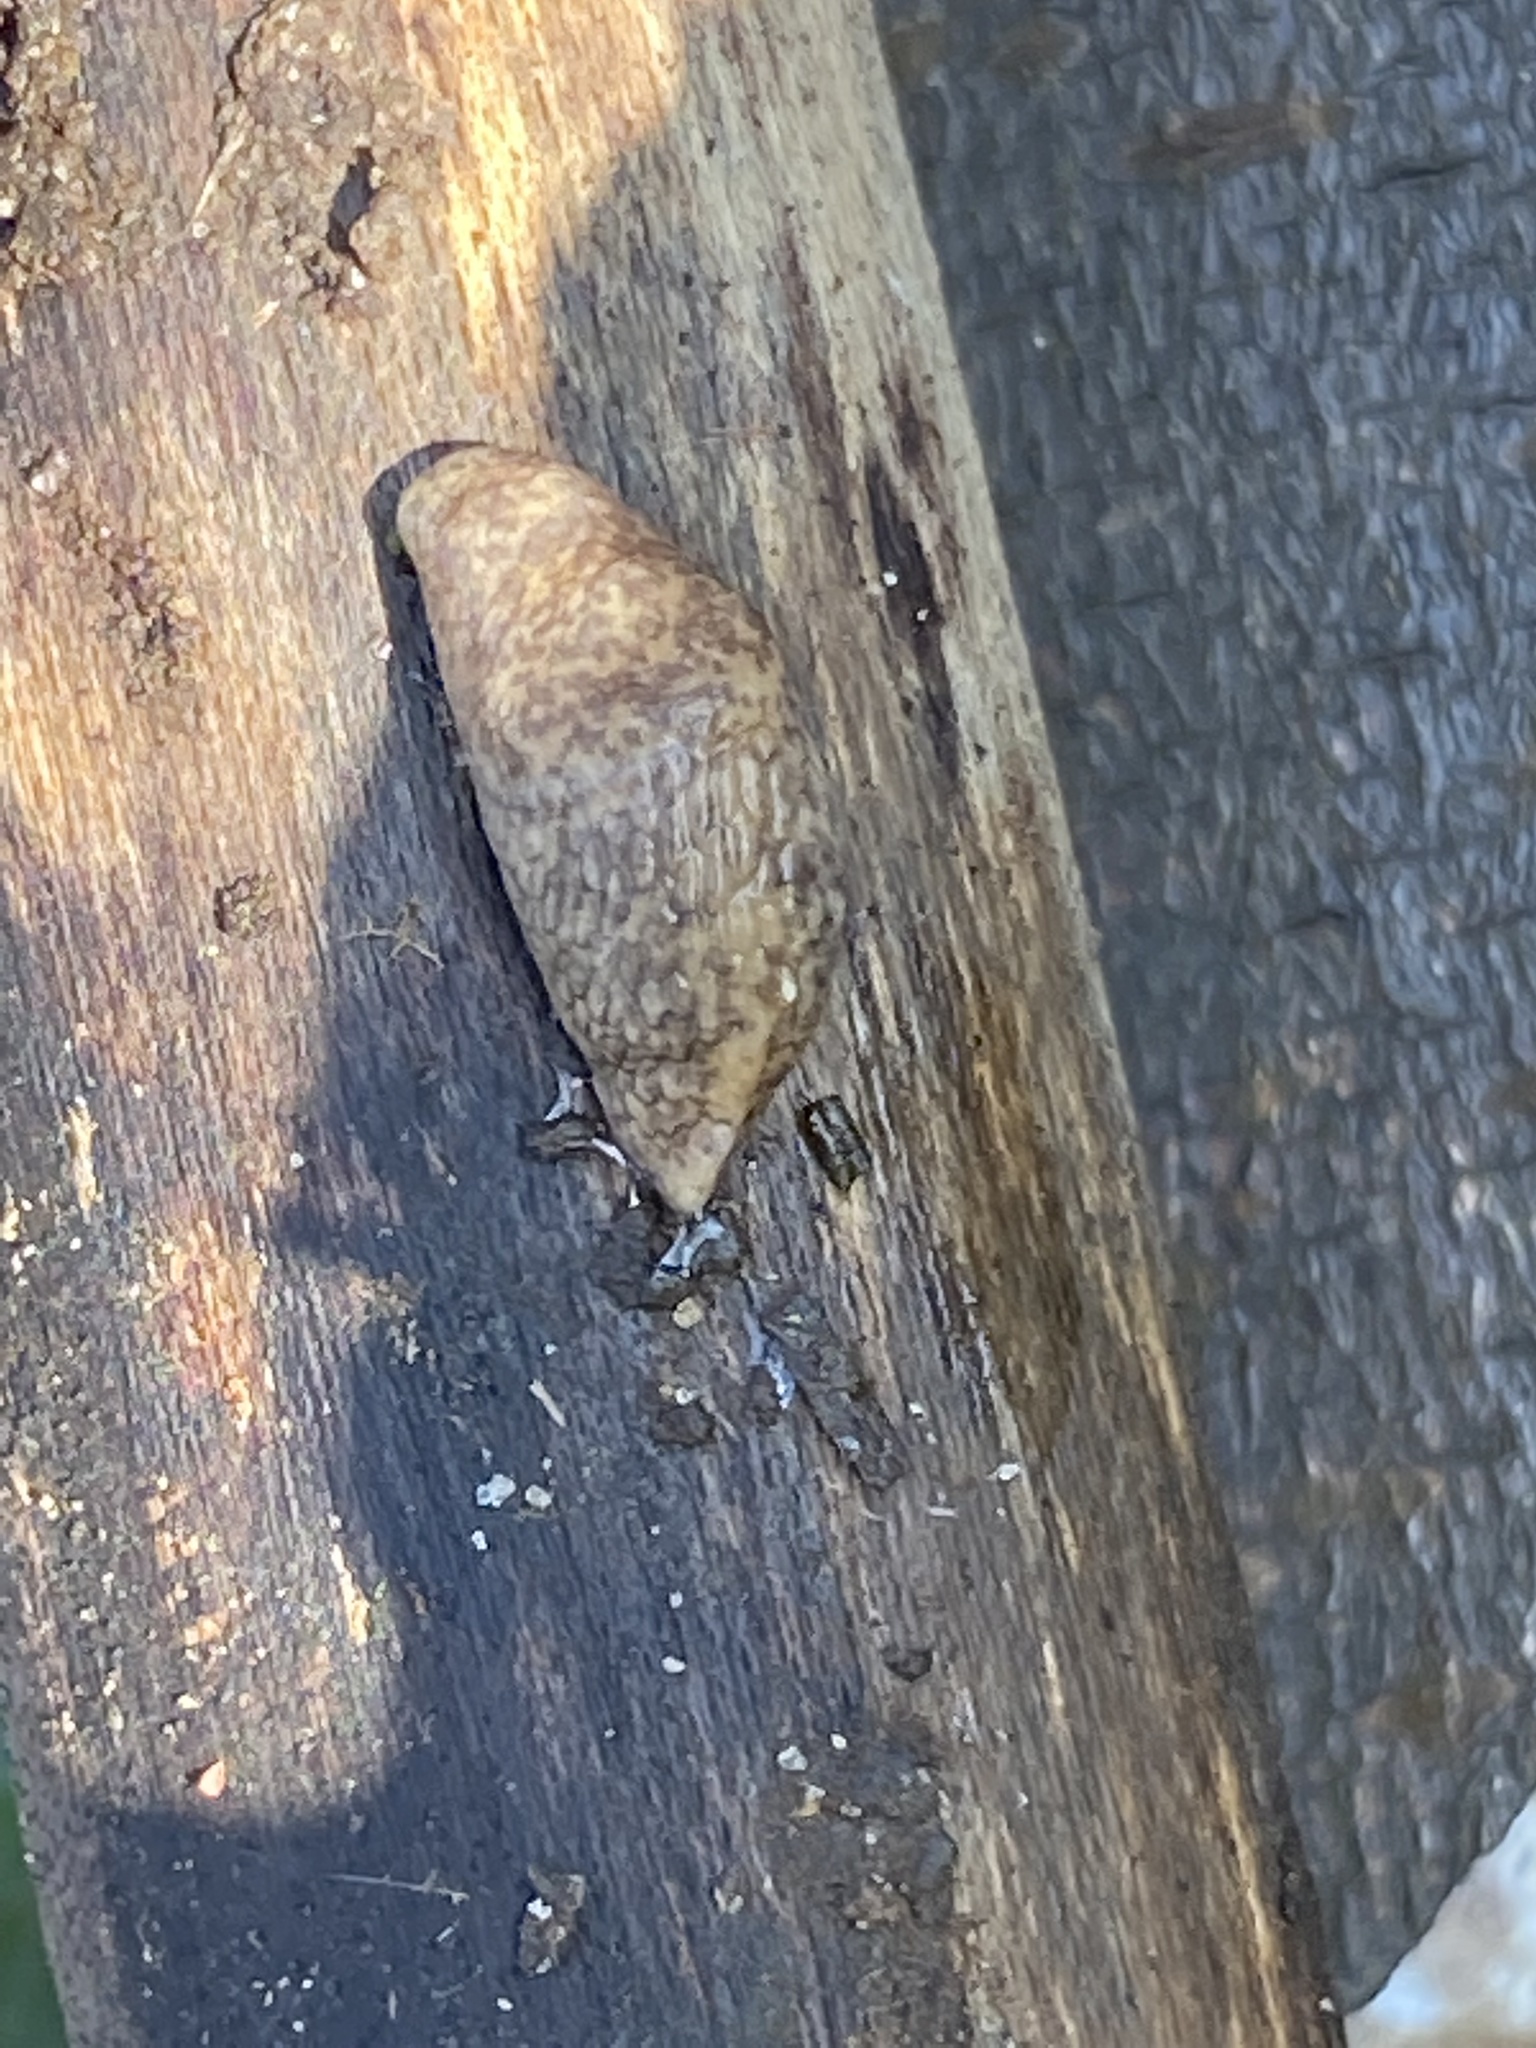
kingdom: Animalia
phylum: Mollusca
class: Gastropoda
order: Stylommatophora
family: Agriolimacidae
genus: Deroceras
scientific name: Deroceras reticulatum
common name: Gray field slug
